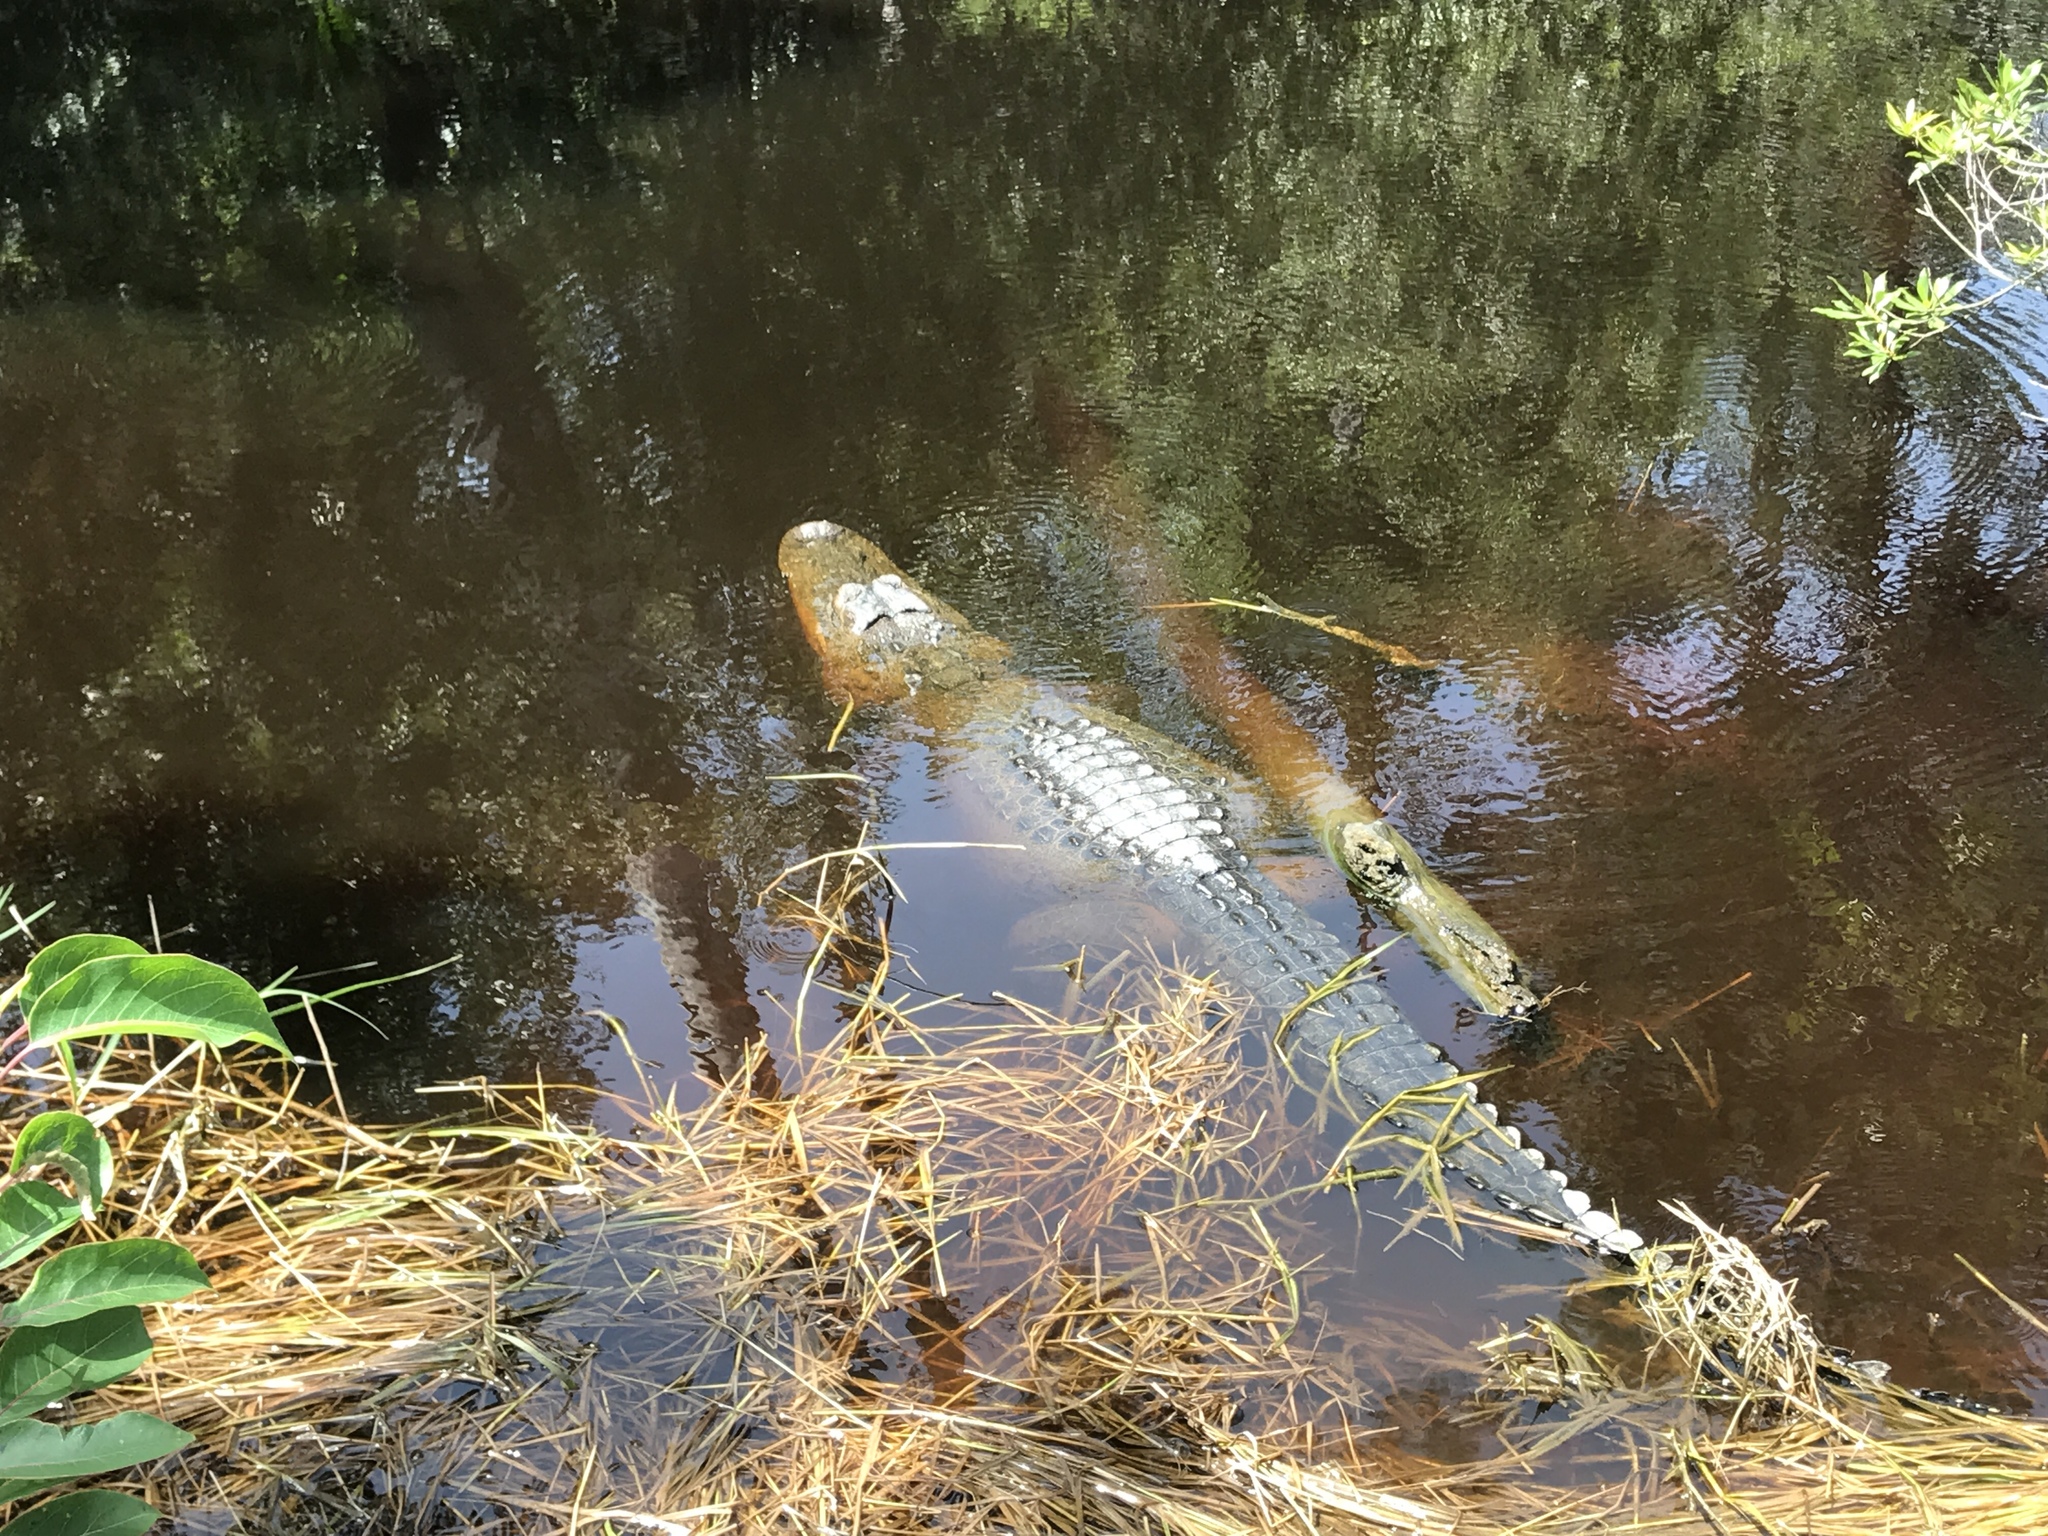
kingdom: Animalia
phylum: Chordata
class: Crocodylia
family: Alligatoridae
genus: Alligator
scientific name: Alligator mississippiensis
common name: American alligator
